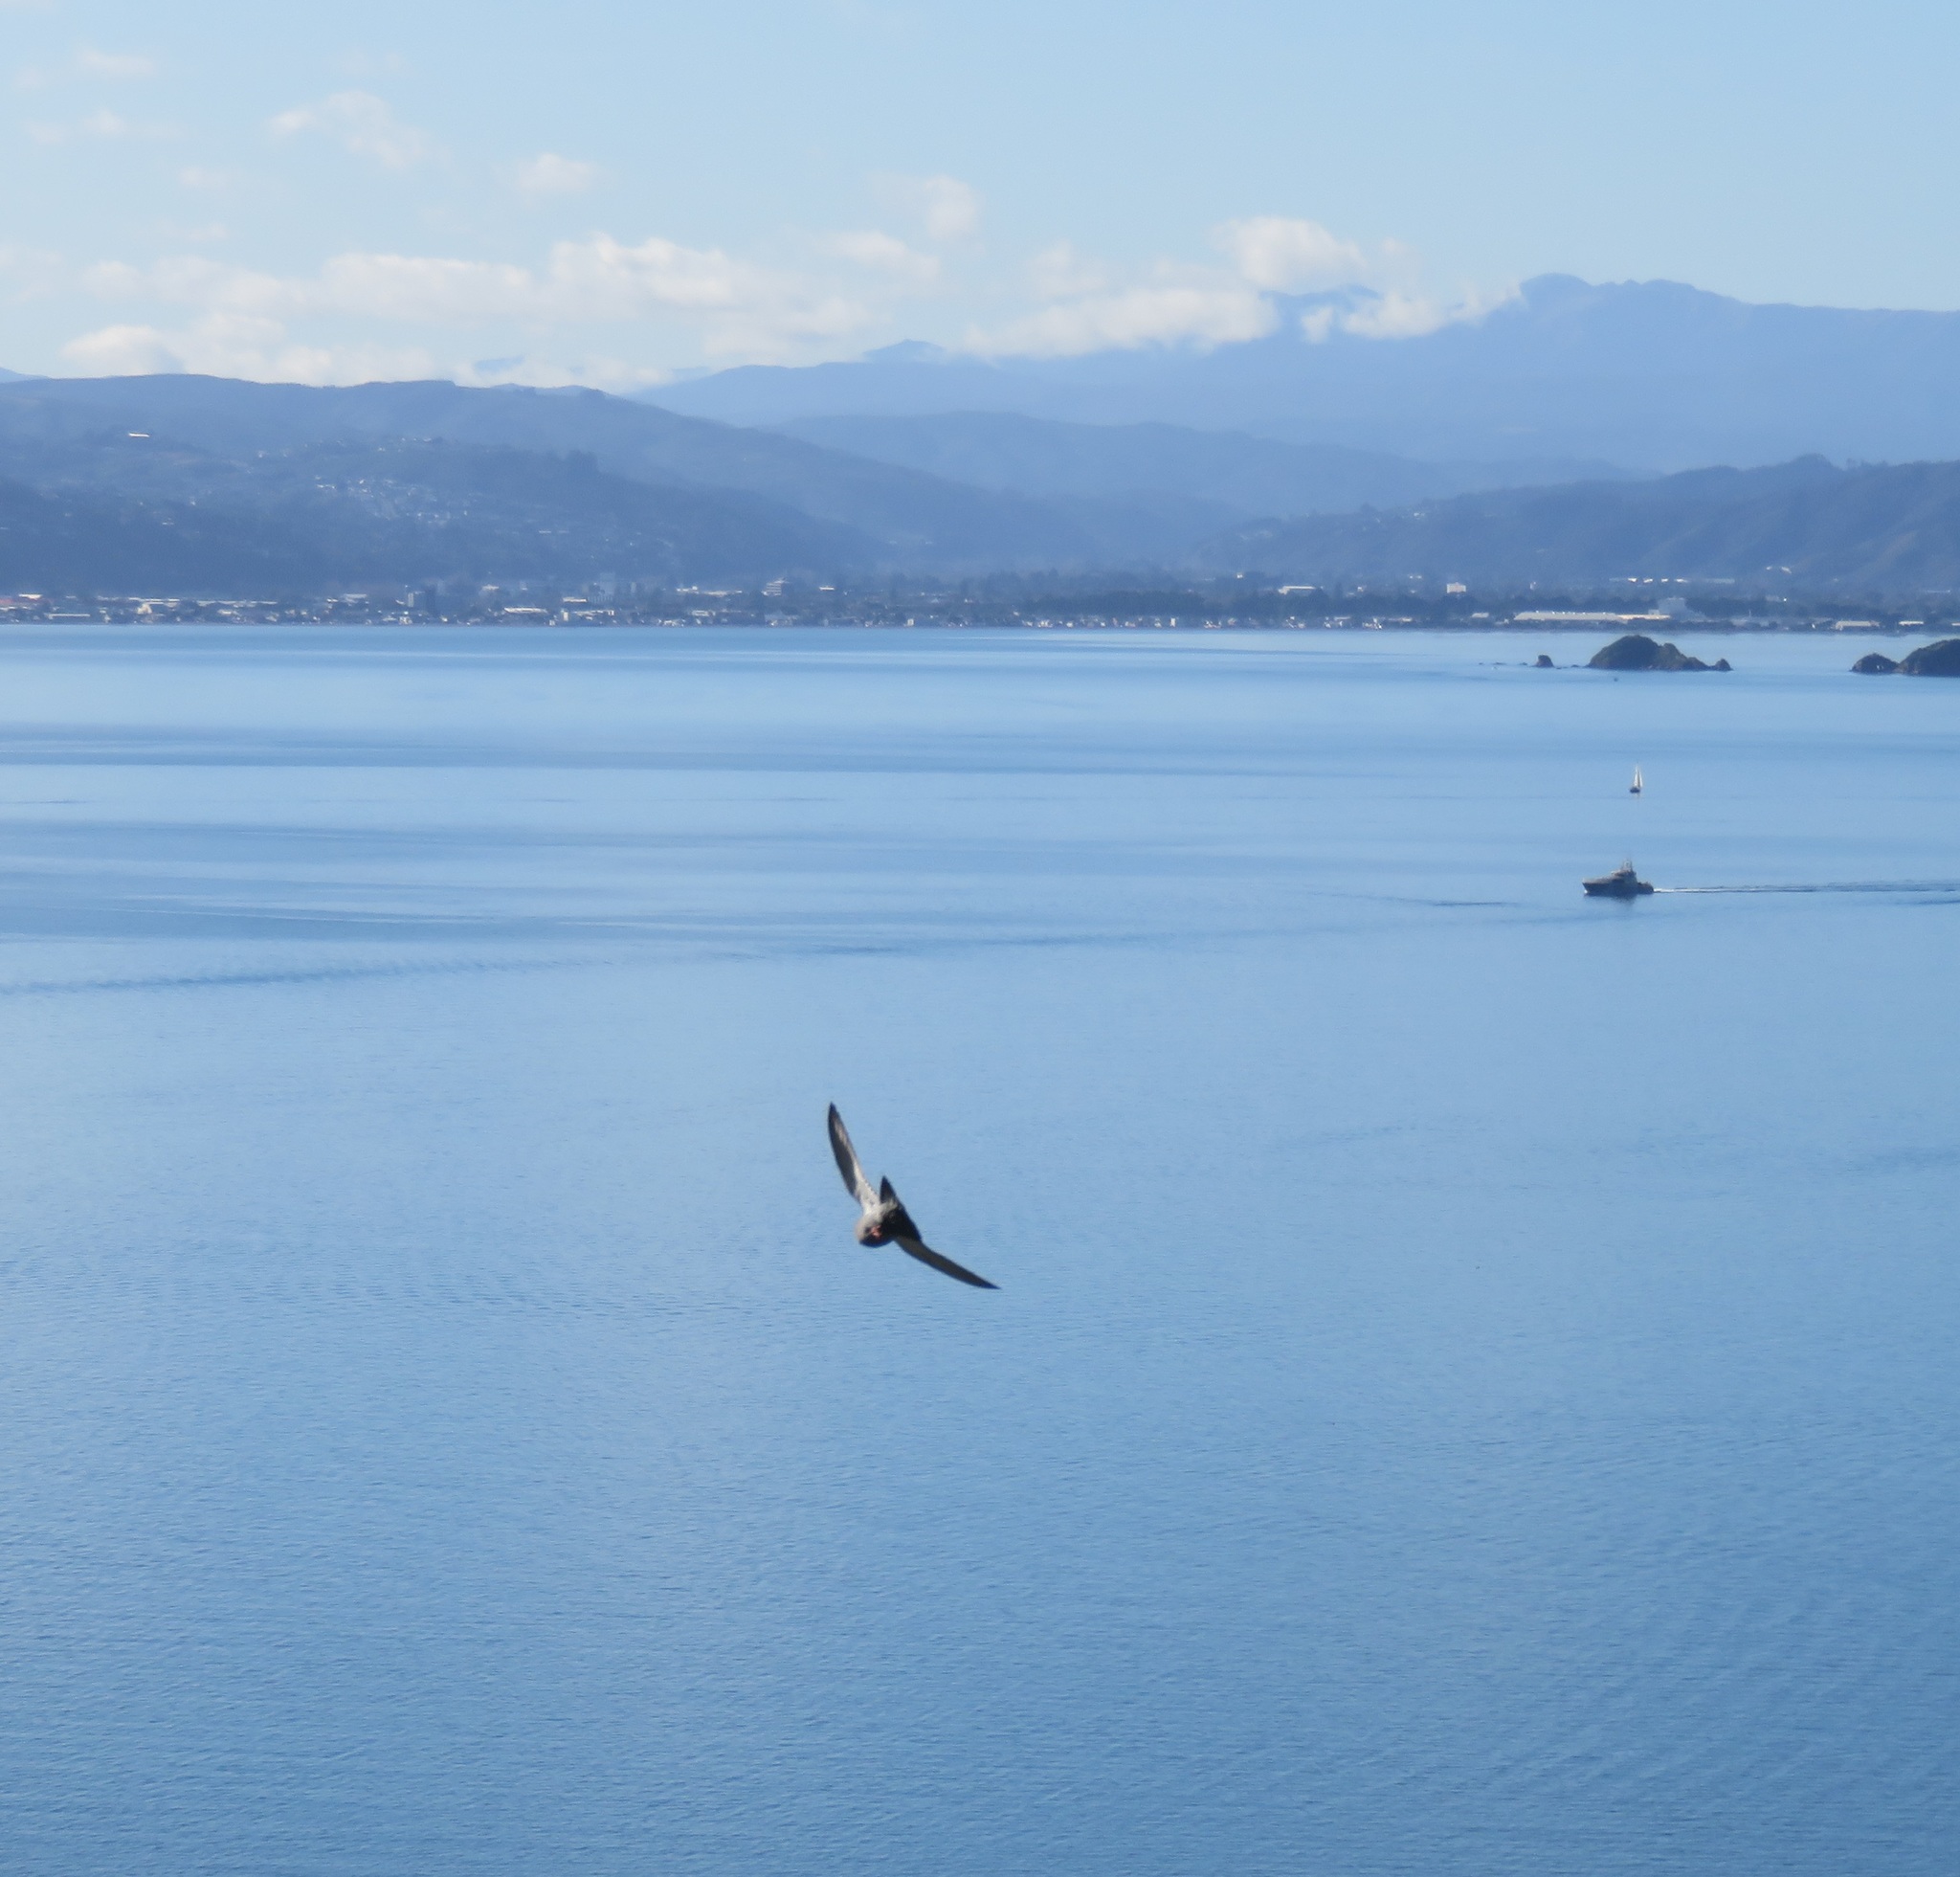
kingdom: Animalia
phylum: Chordata
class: Aves
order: Columbiformes
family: Columbidae
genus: Columba
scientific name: Columba livia
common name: Rock pigeon
